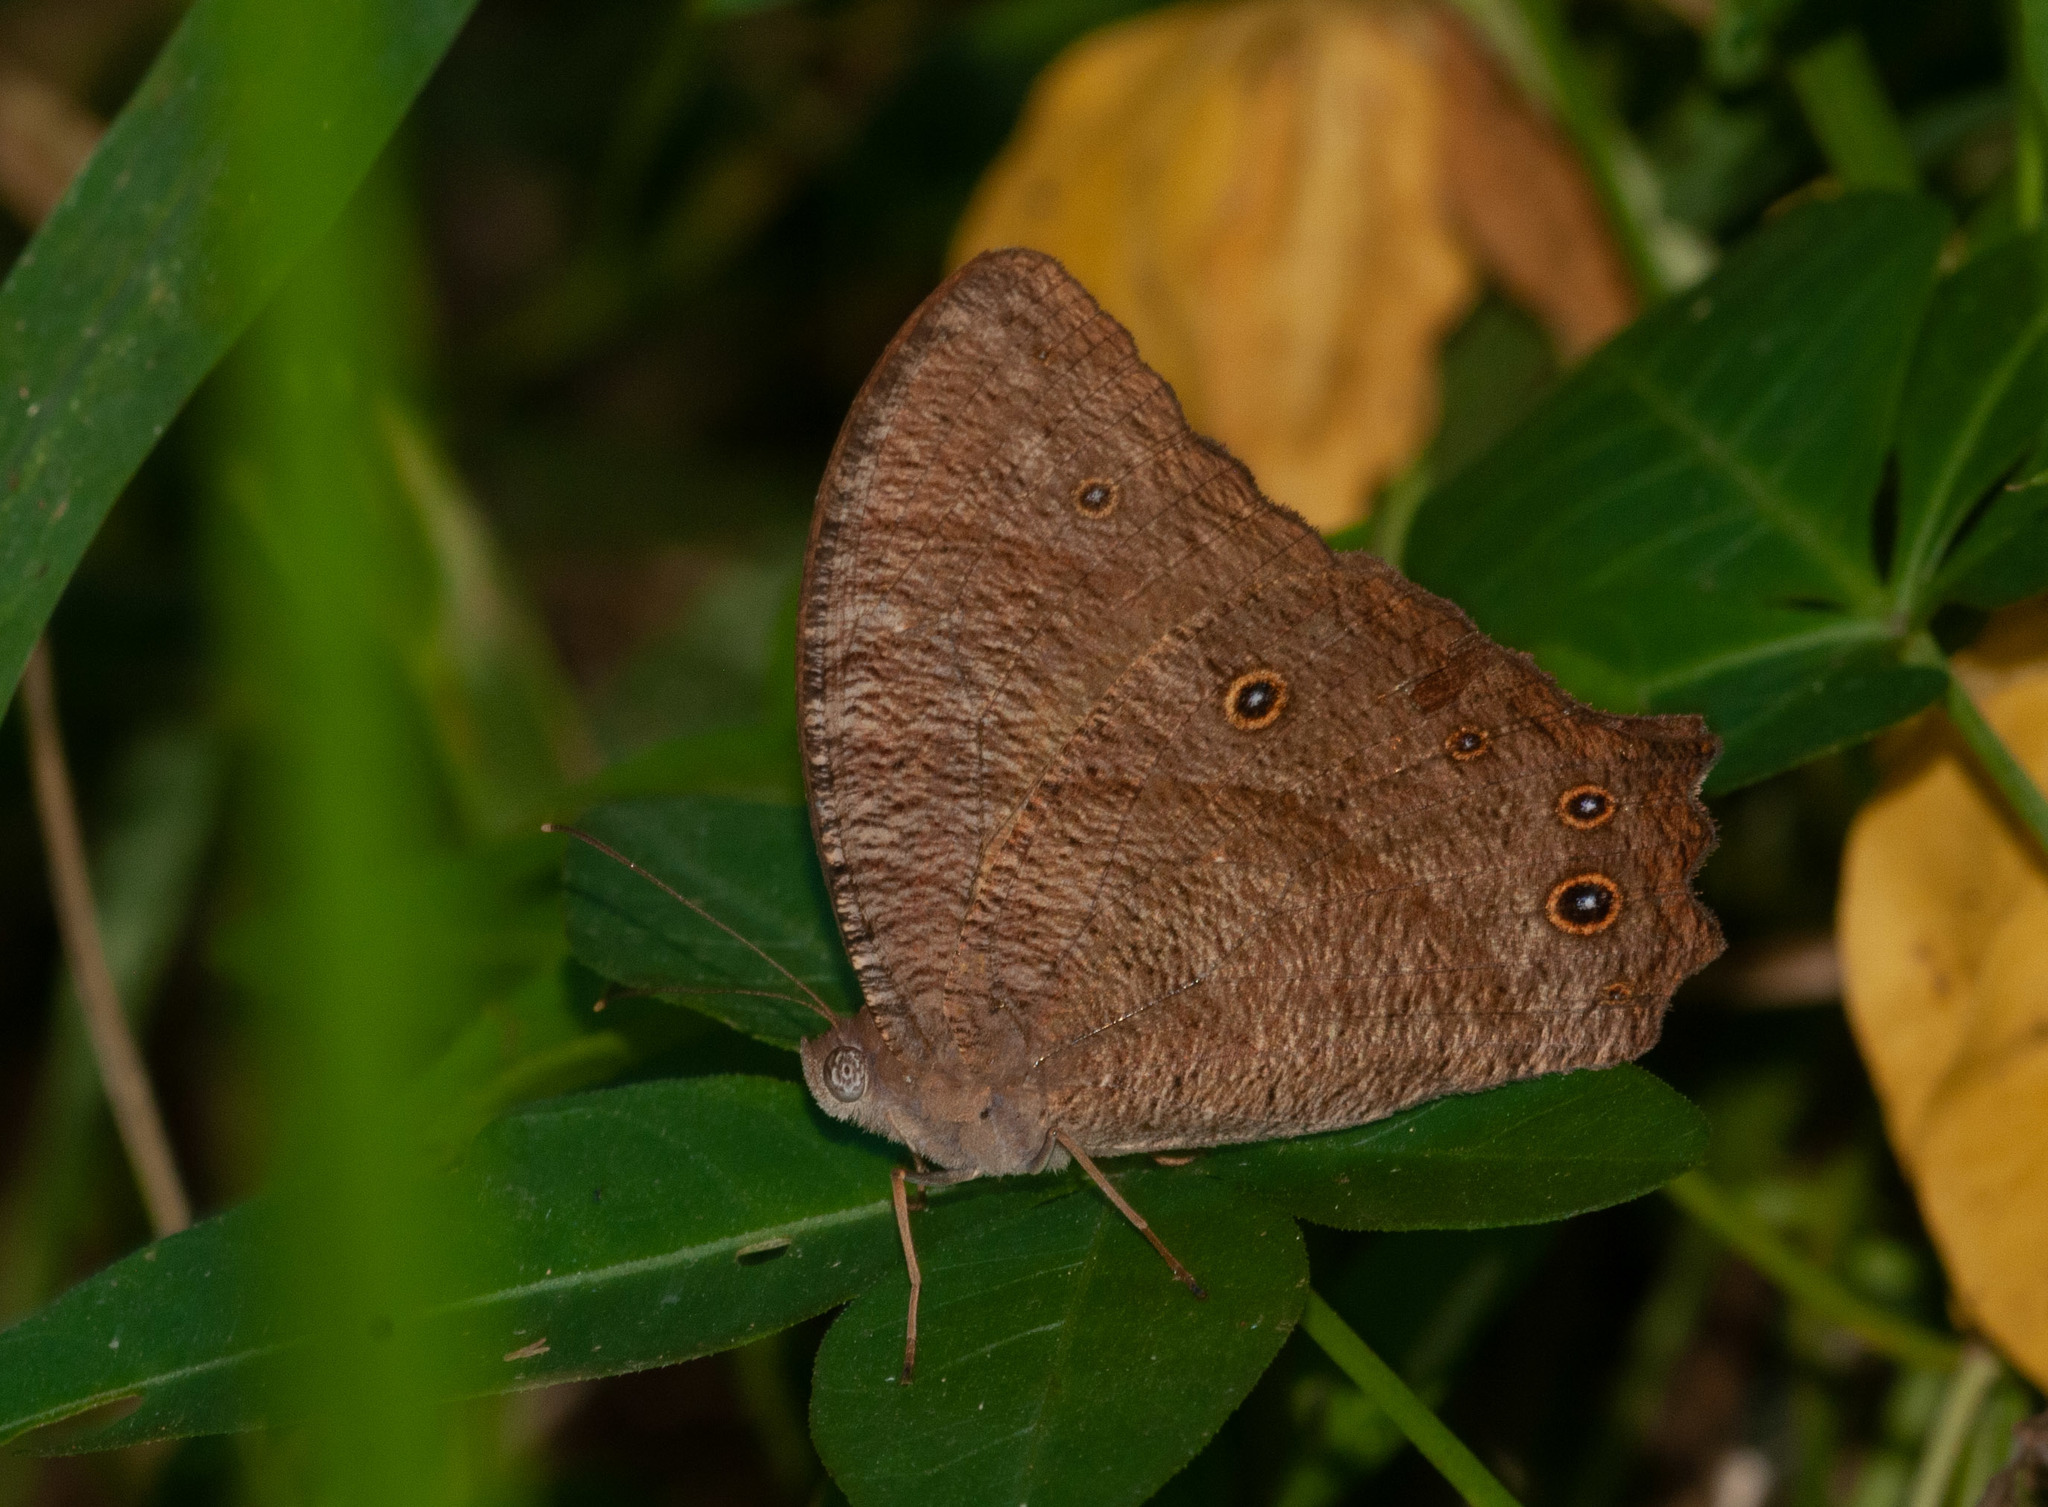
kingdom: Animalia
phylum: Arthropoda
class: Insecta
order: Lepidoptera
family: Nymphalidae
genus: Melanitis
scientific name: Melanitis leda
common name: Twilight brown
